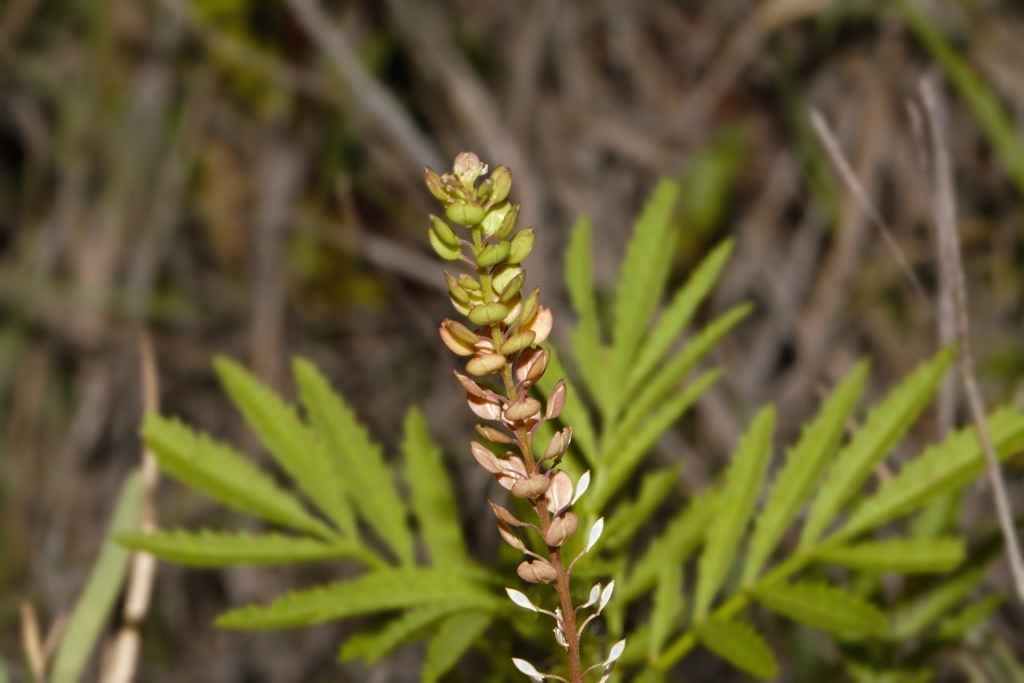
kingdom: Plantae
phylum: Tracheophyta
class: Magnoliopsida
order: Brassicales
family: Brassicaceae
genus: Lepidium
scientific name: Lepidium bonariense
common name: Argentine pepperwort
